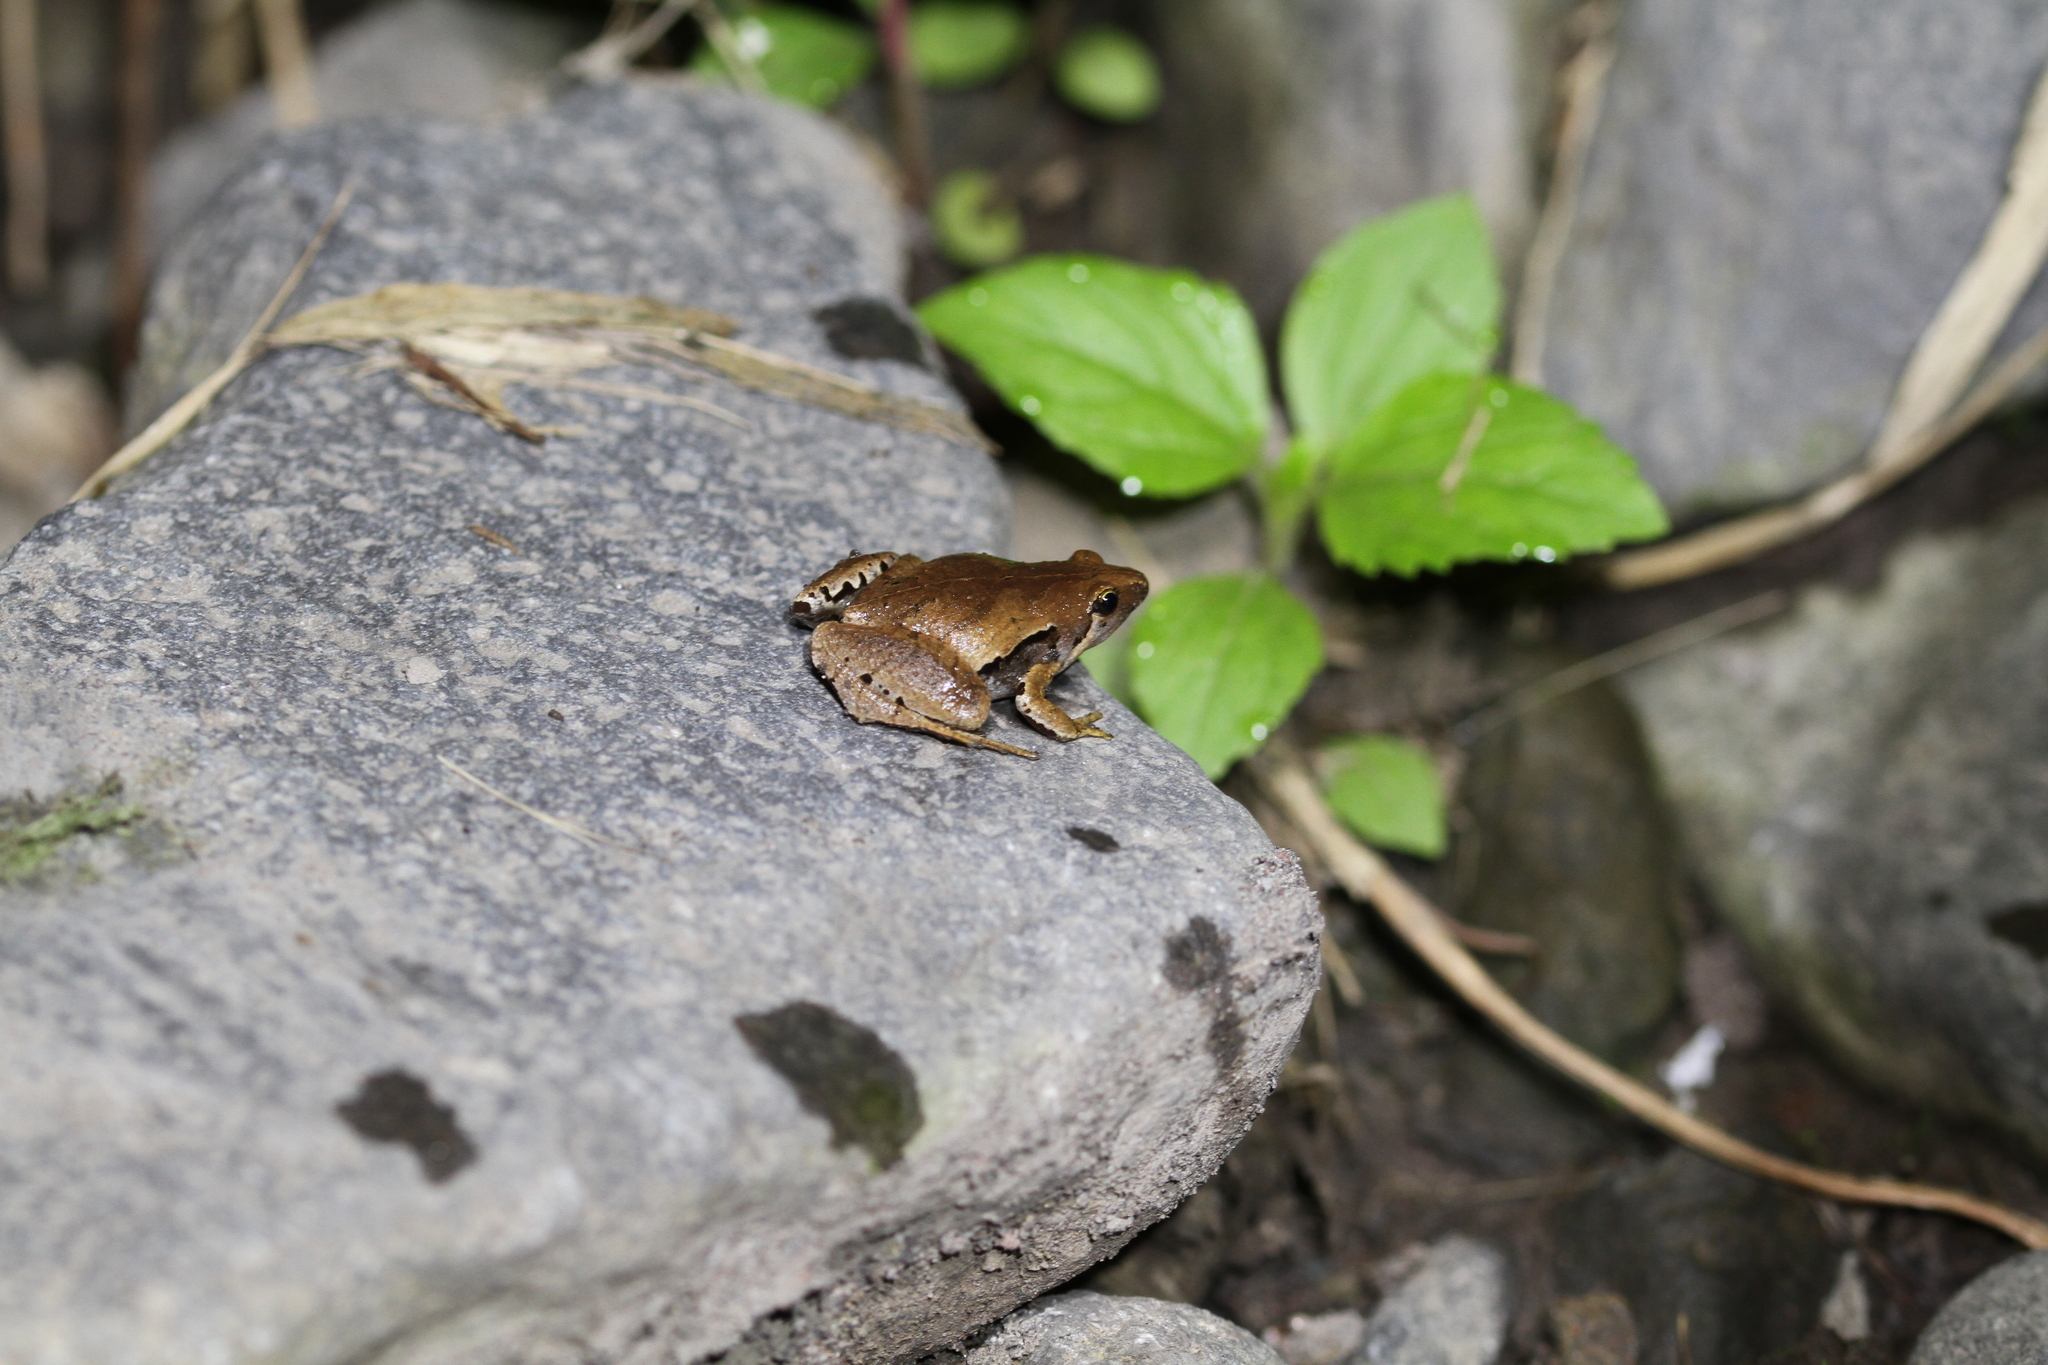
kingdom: Animalia
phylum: Chordata
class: Amphibia
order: Anura
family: Microhylidae
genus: Microhyla
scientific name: Microhyla achatina
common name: Javan chorus frog
